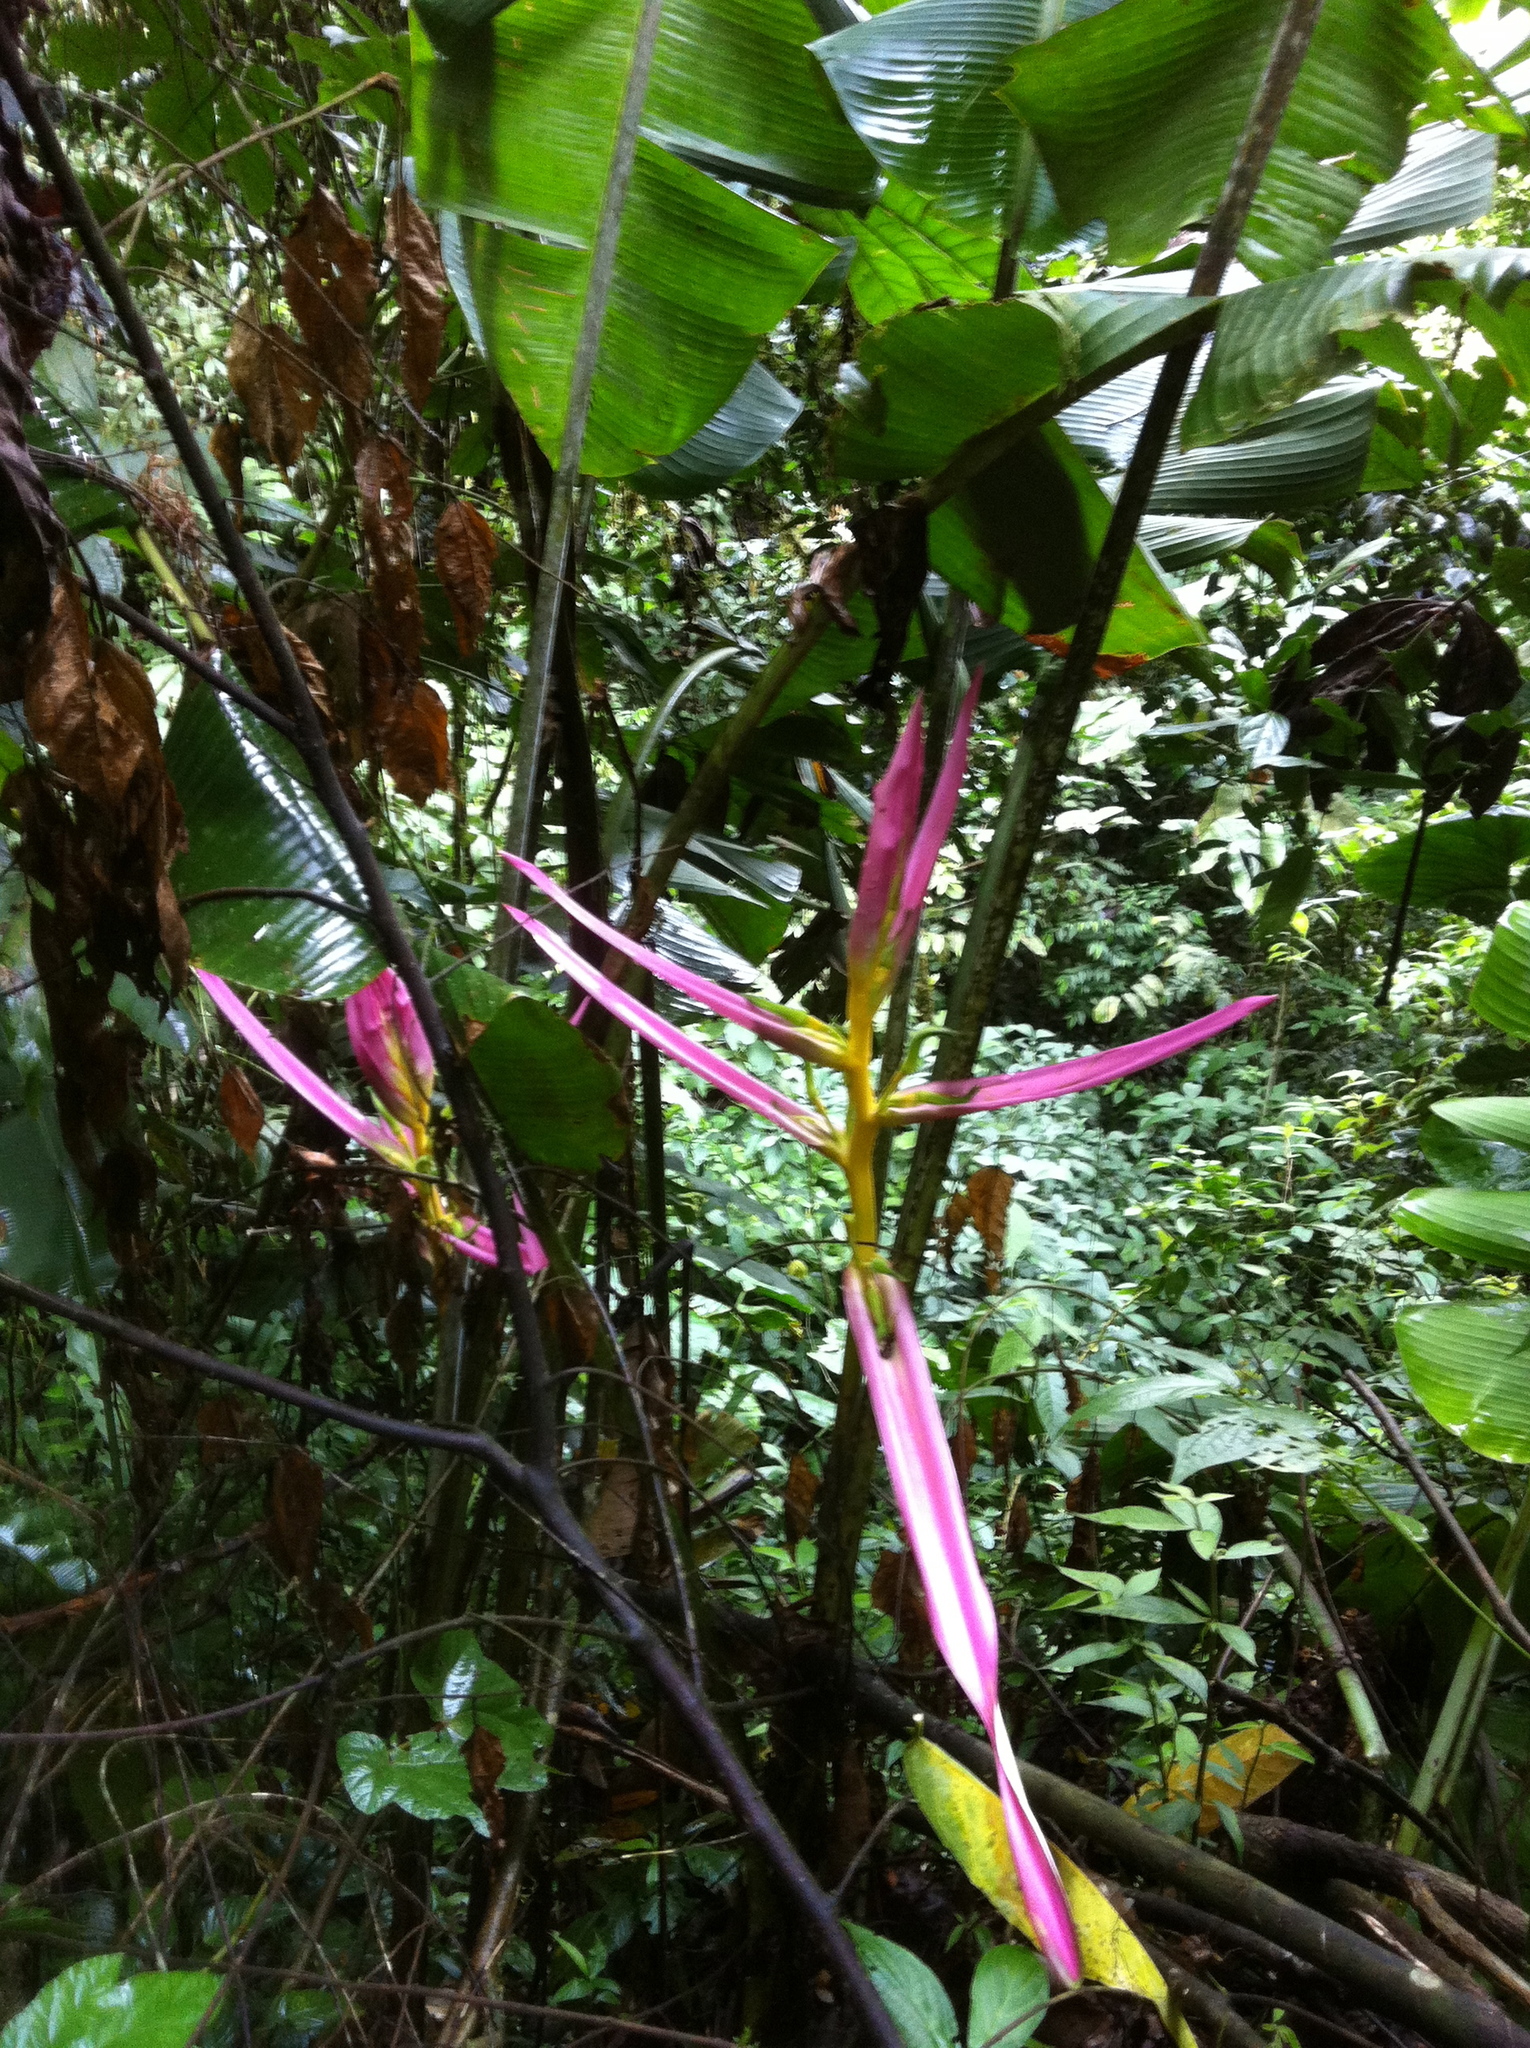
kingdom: Plantae
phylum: Tracheophyta
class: Liliopsida
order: Zingiberales
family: Heliconiaceae
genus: Heliconia
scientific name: Heliconia aemygdiana
